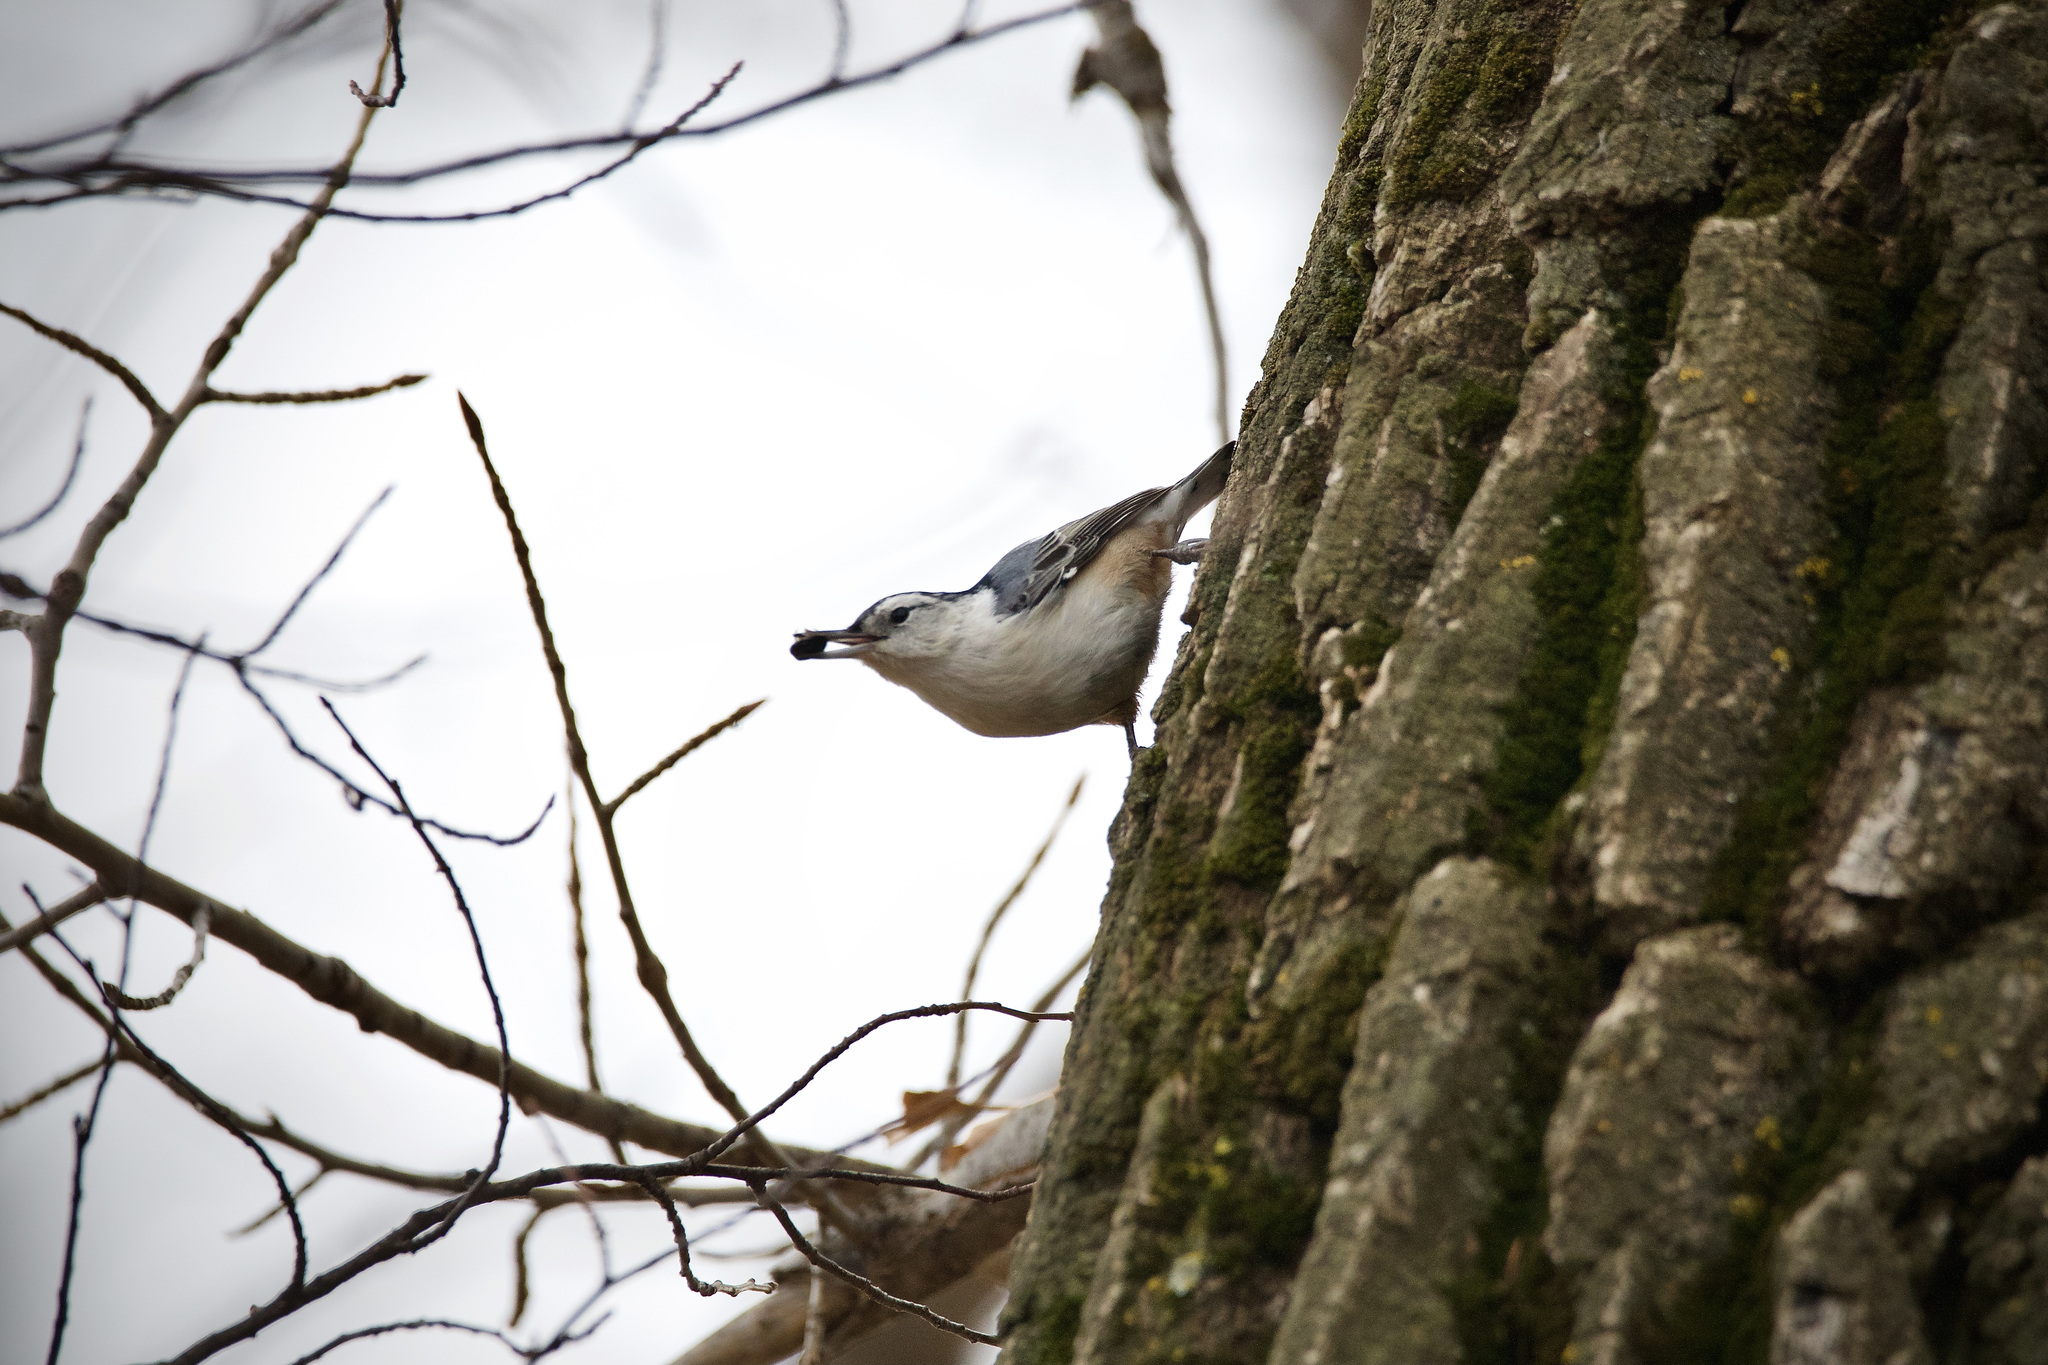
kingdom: Animalia
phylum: Chordata
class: Aves
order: Passeriformes
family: Sittidae
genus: Sitta
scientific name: Sitta carolinensis
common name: White-breasted nuthatch
